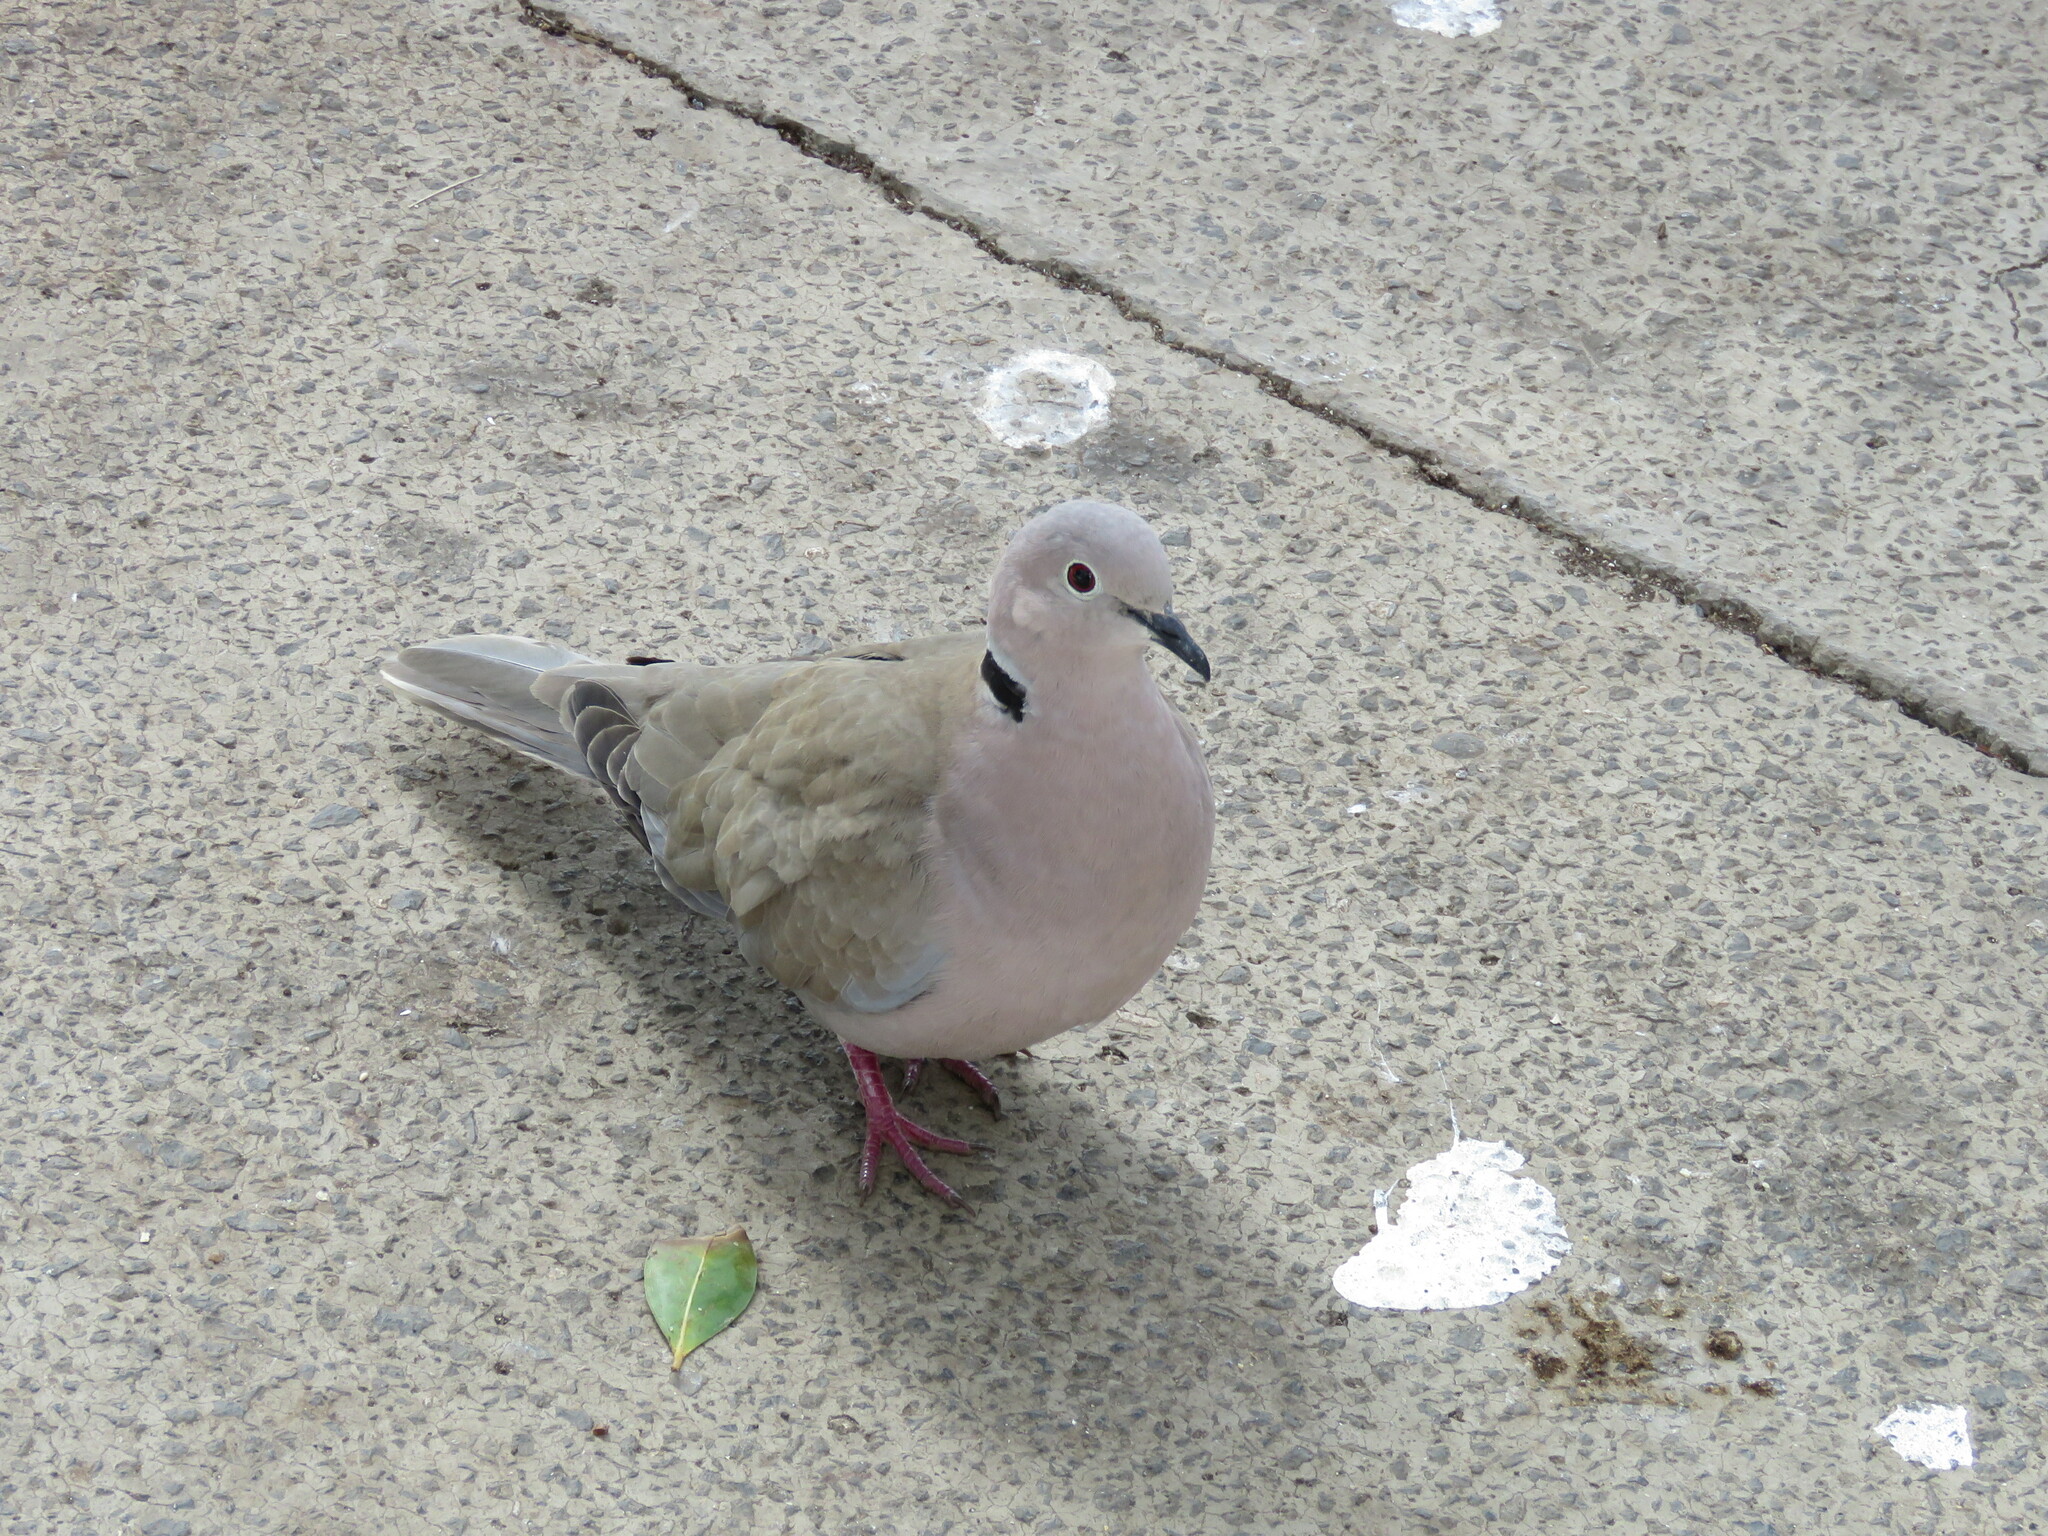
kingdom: Animalia
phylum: Chordata
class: Aves
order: Columbiformes
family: Columbidae
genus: Streptopelia
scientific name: Streptopelia decaocto
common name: Eurasian collared dove
